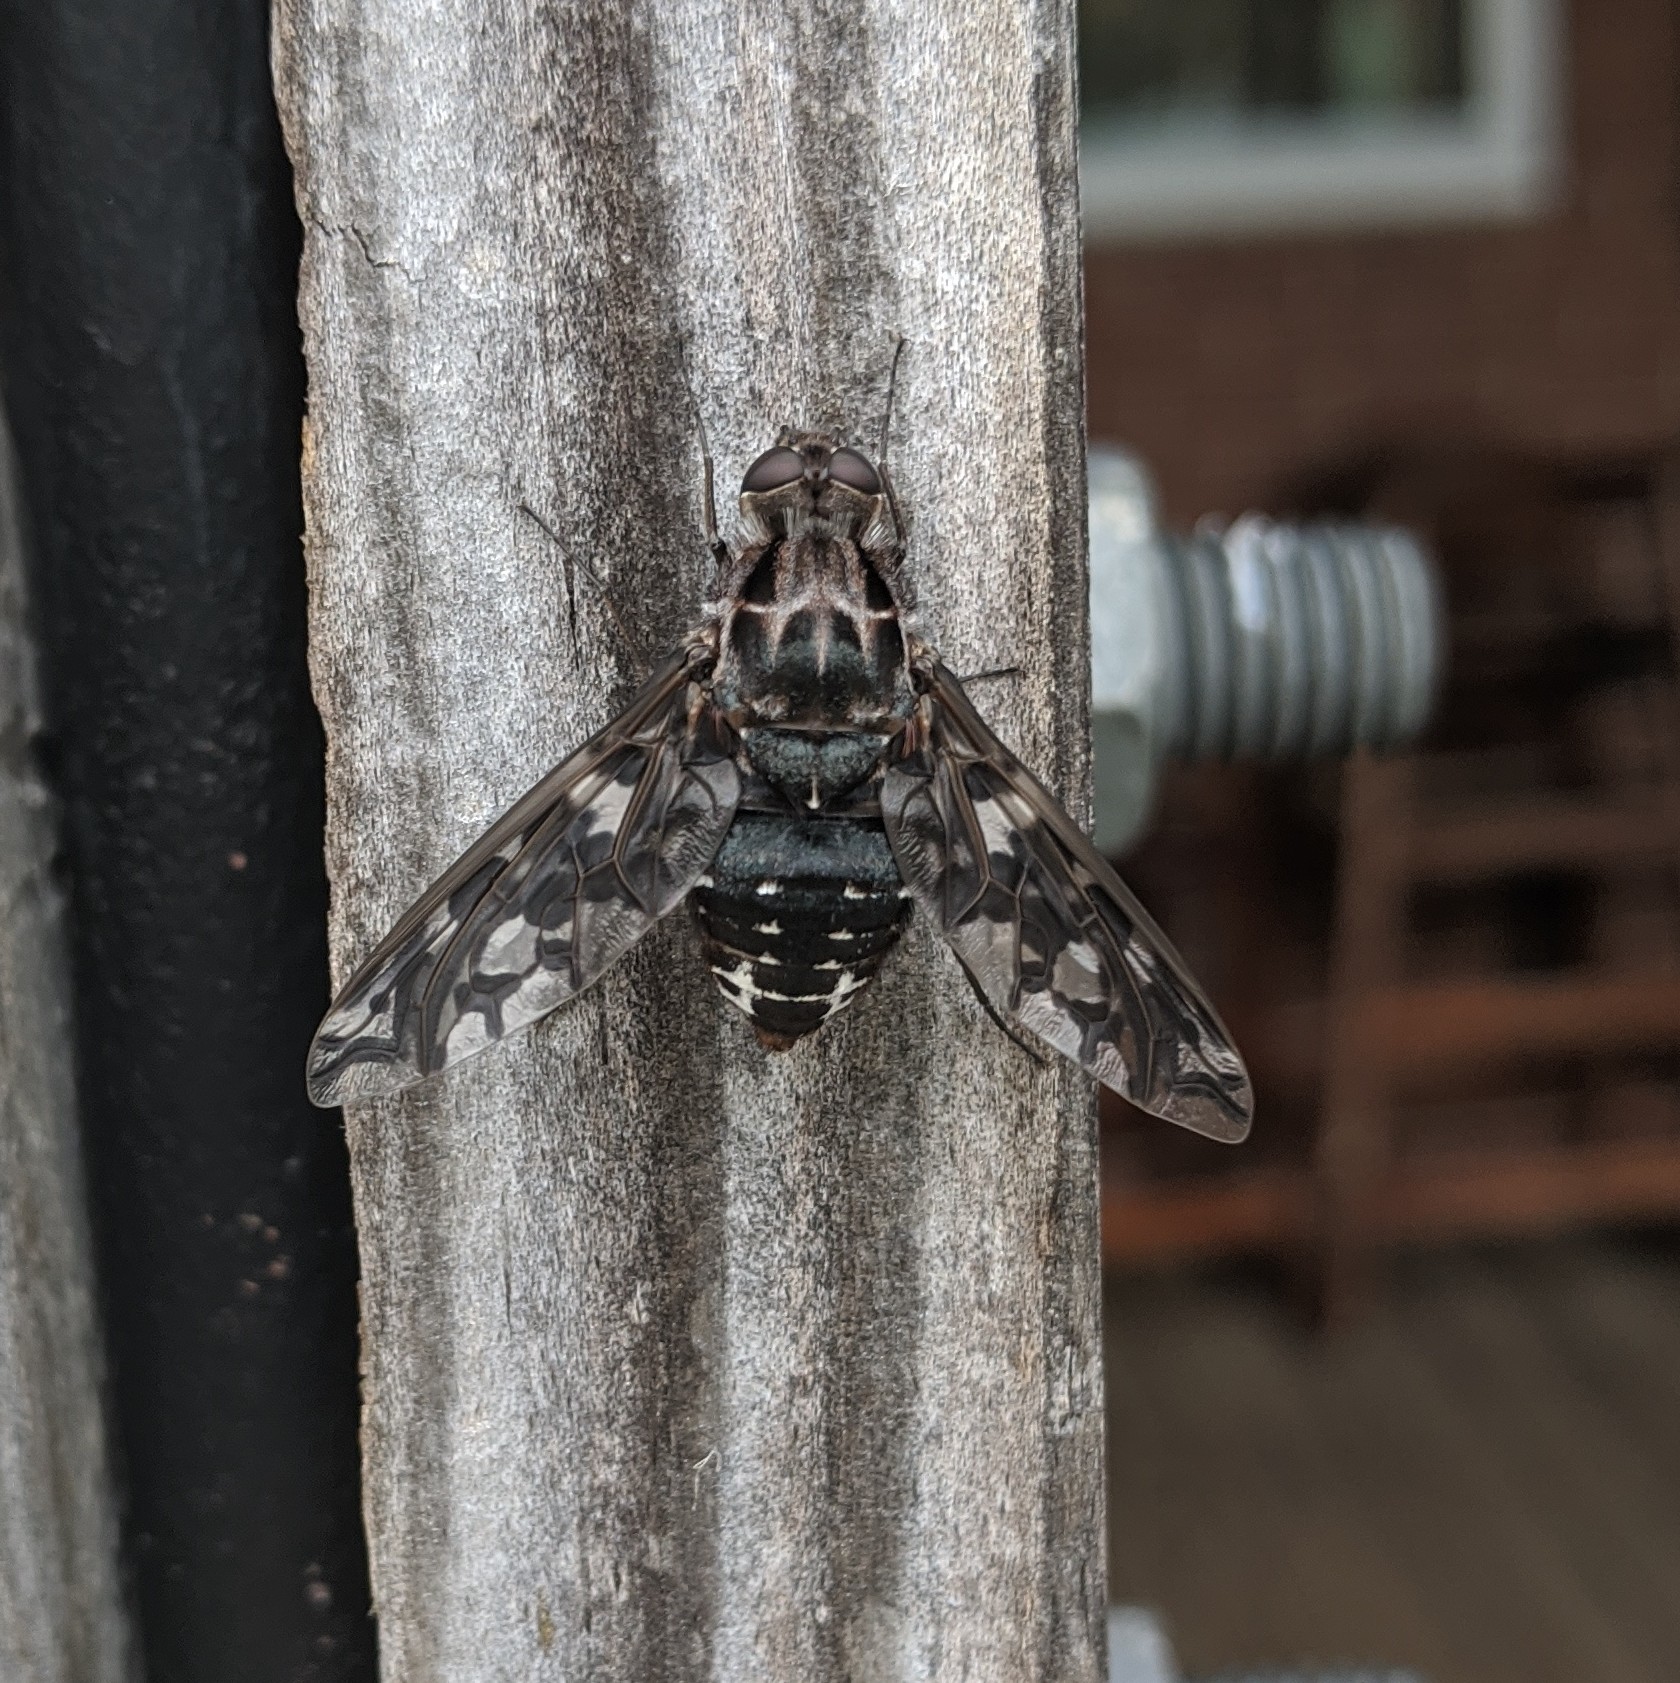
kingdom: Animalia
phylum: Arthropoda
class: Insecta
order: Diptera
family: Bombyliidae
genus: Xenox
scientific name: Xenox tigrinus
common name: Tiger bee fly
